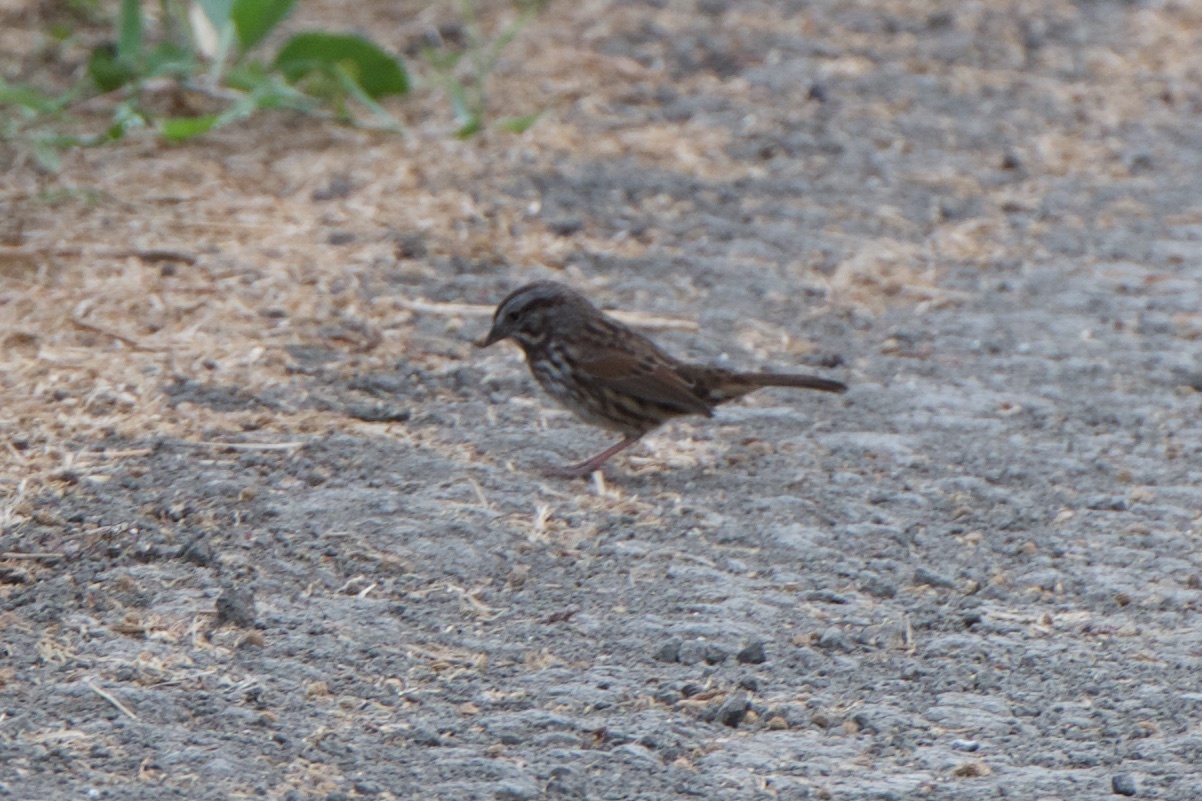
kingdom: Animalia
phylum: Chordata
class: Aves
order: Passeriformes
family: Passerellidae
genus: Melospiza
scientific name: Melospiza melodia
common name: Song sparrow
